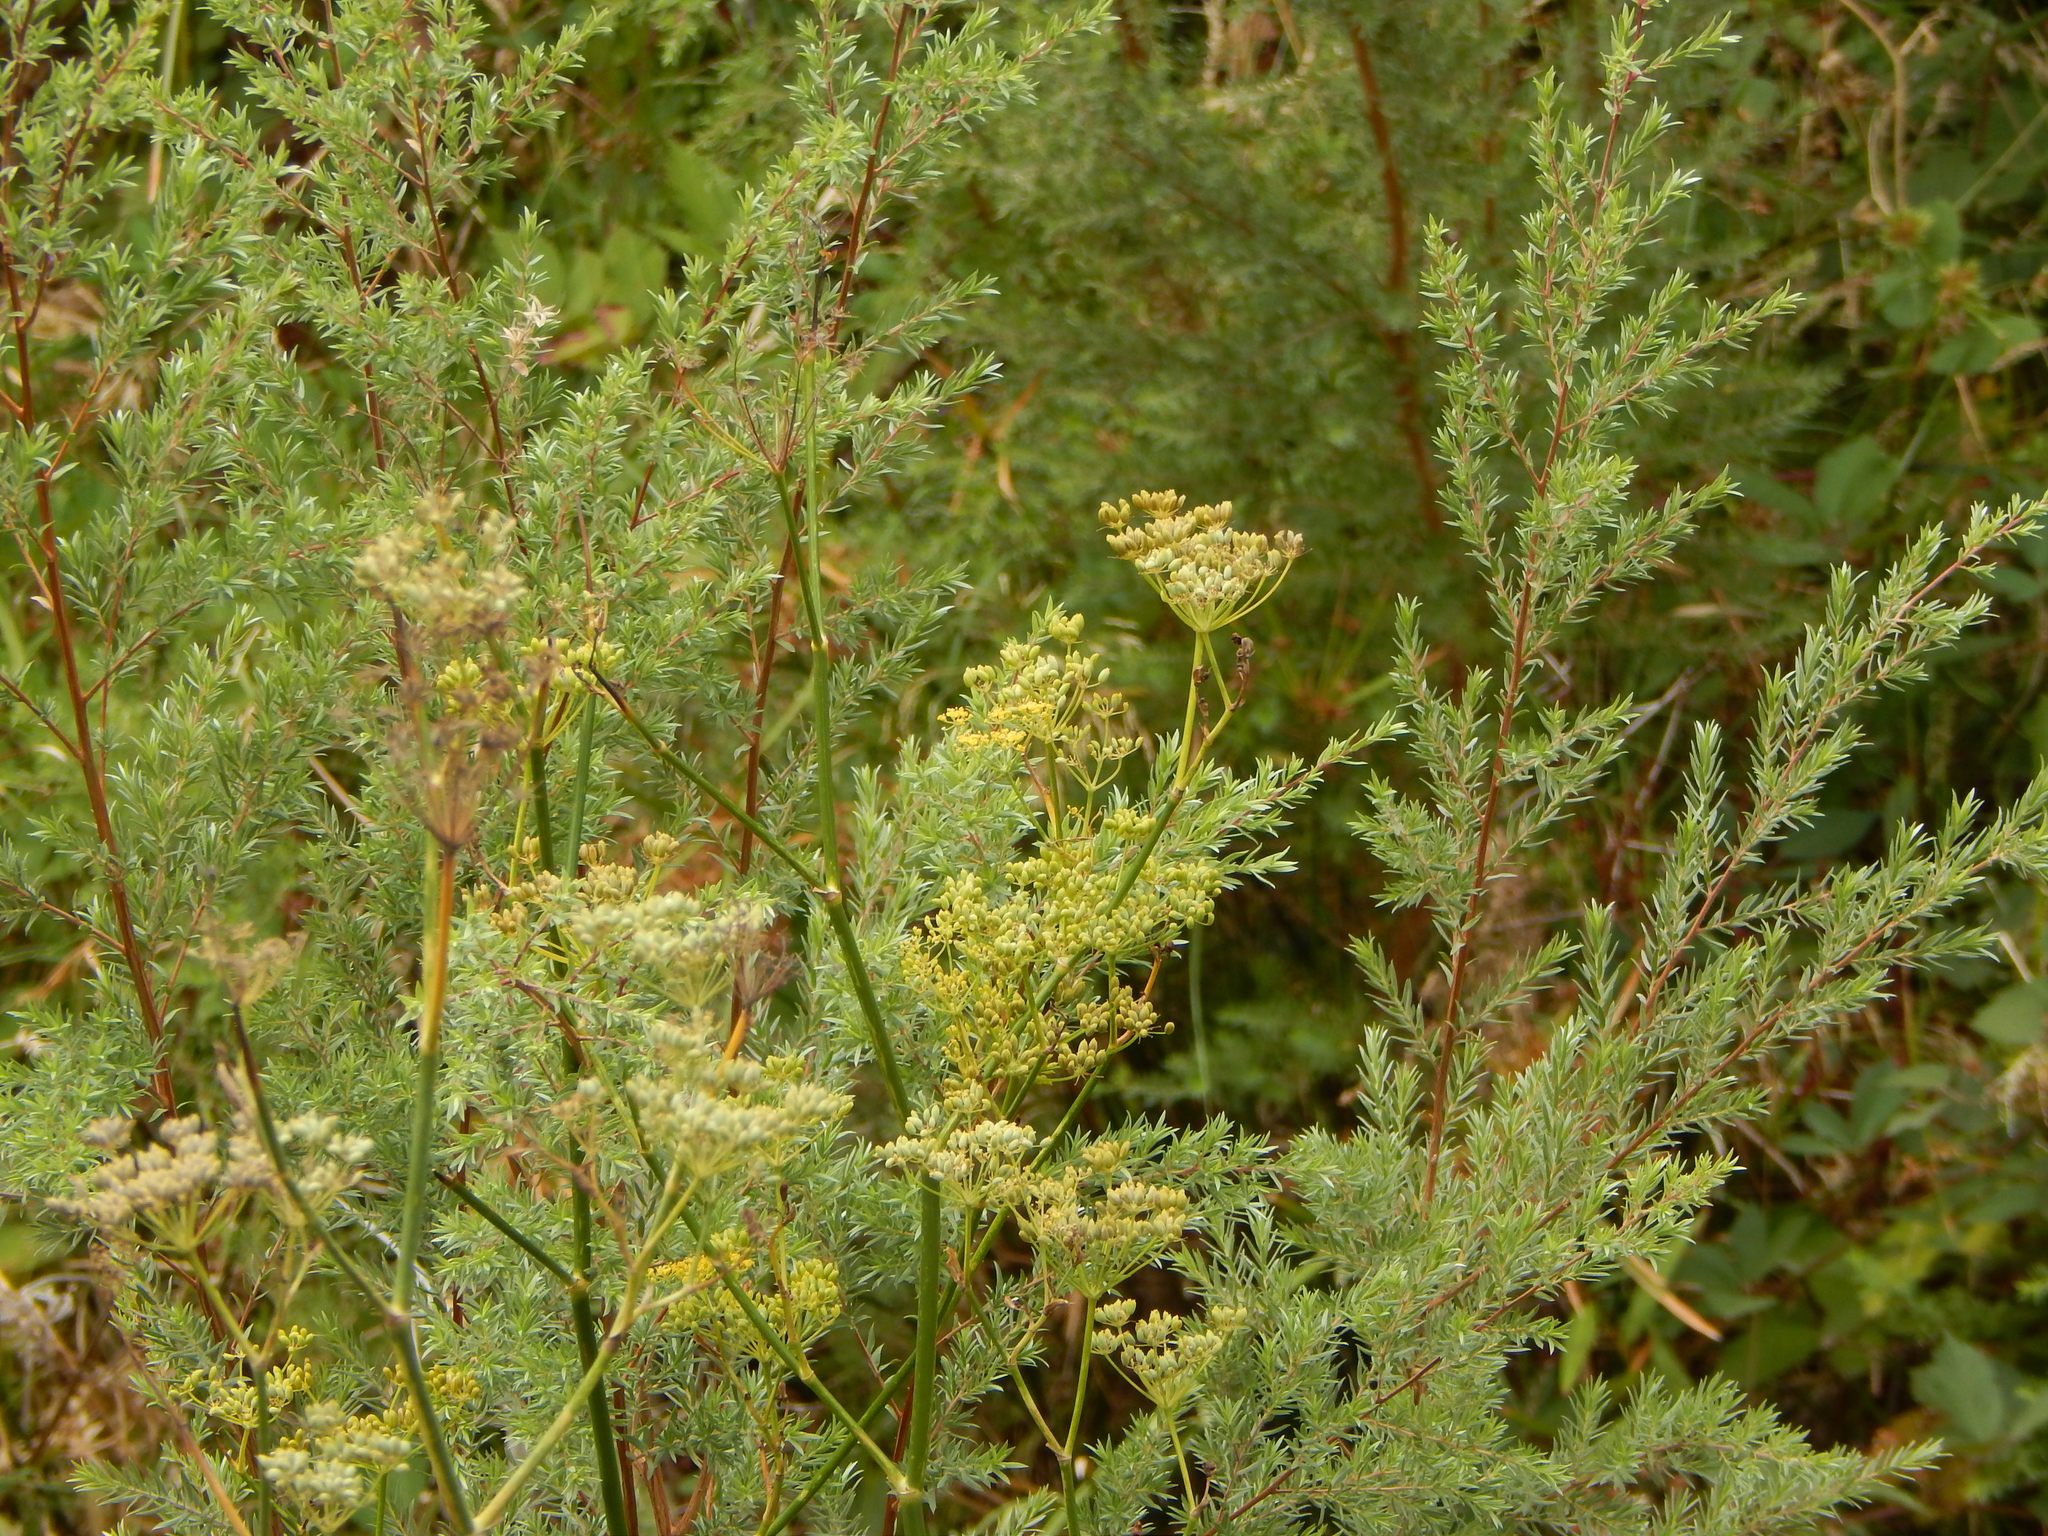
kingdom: Plantae
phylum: Tracheophyta
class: Magnoliopsida
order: Apiales
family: Apiaceae
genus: Foeniculum
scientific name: Foeniculum vulgare
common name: Fennel
